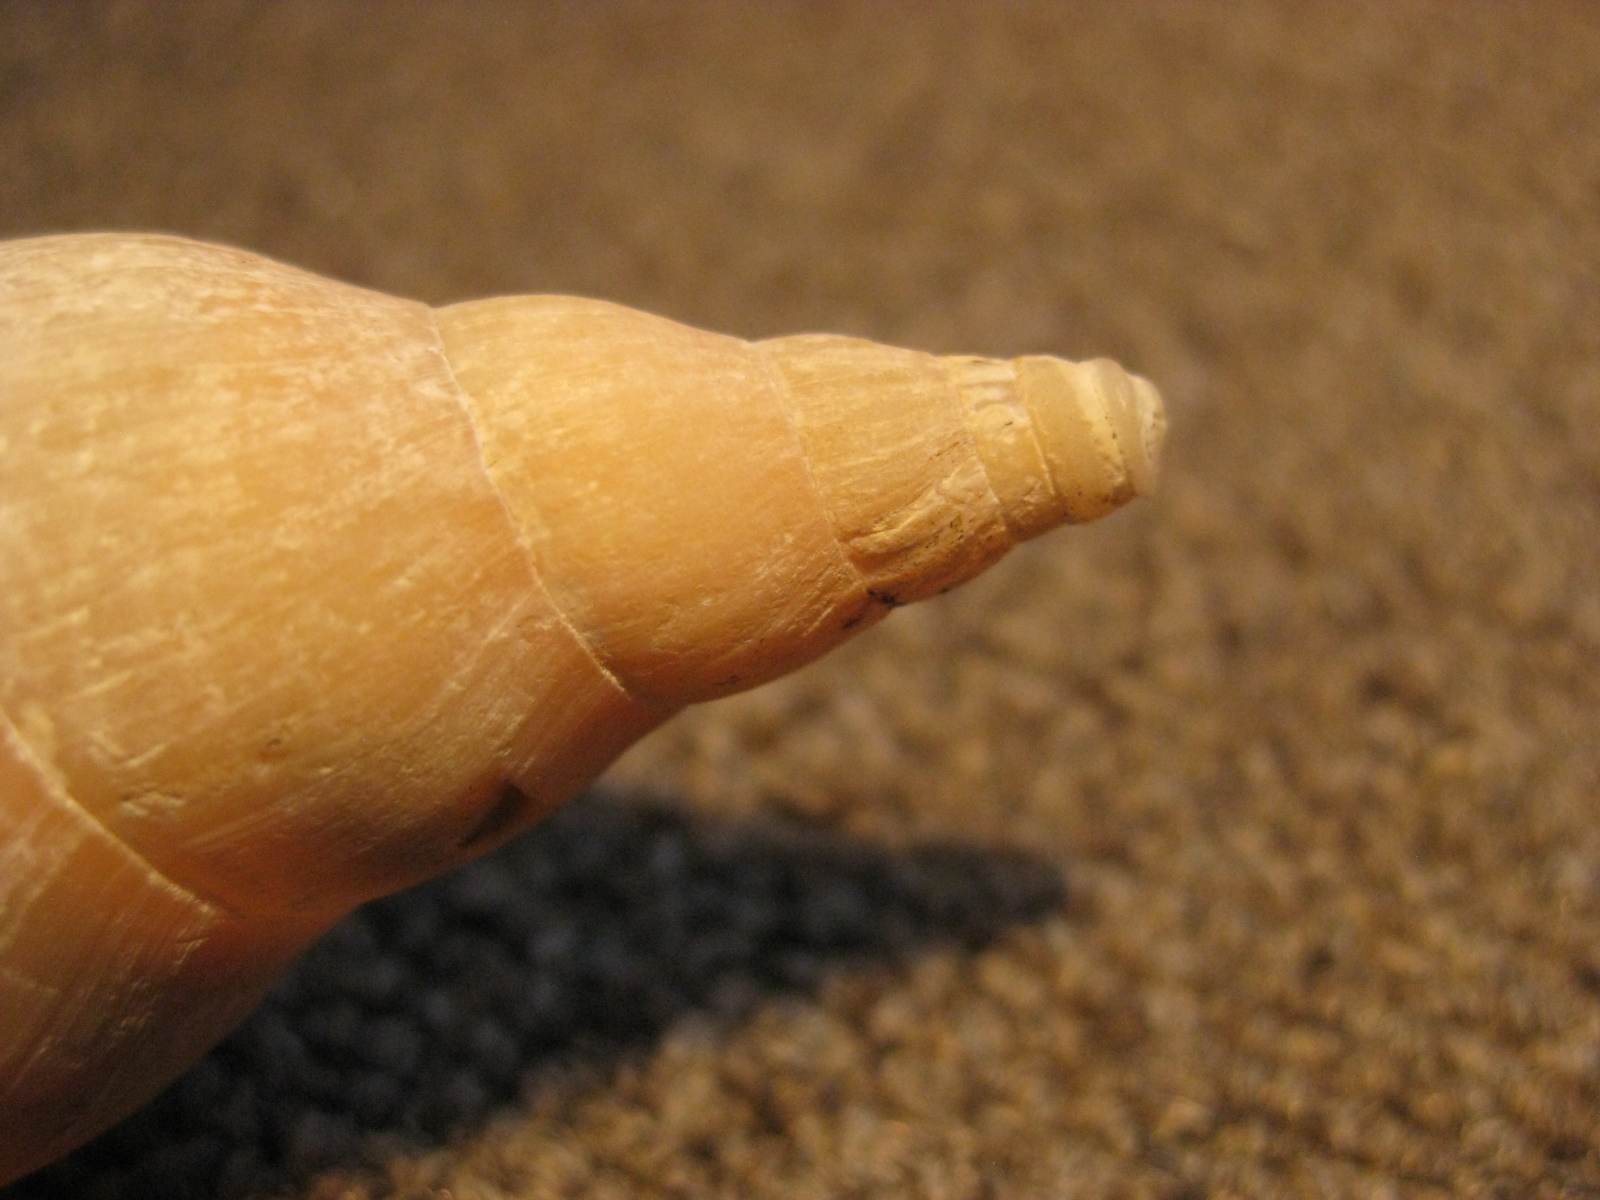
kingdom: Animalia
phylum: Mollusca
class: Gastropoda
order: Neogastropoda
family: Volutidae
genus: Alcithoe
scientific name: Alcithoe tigrina
